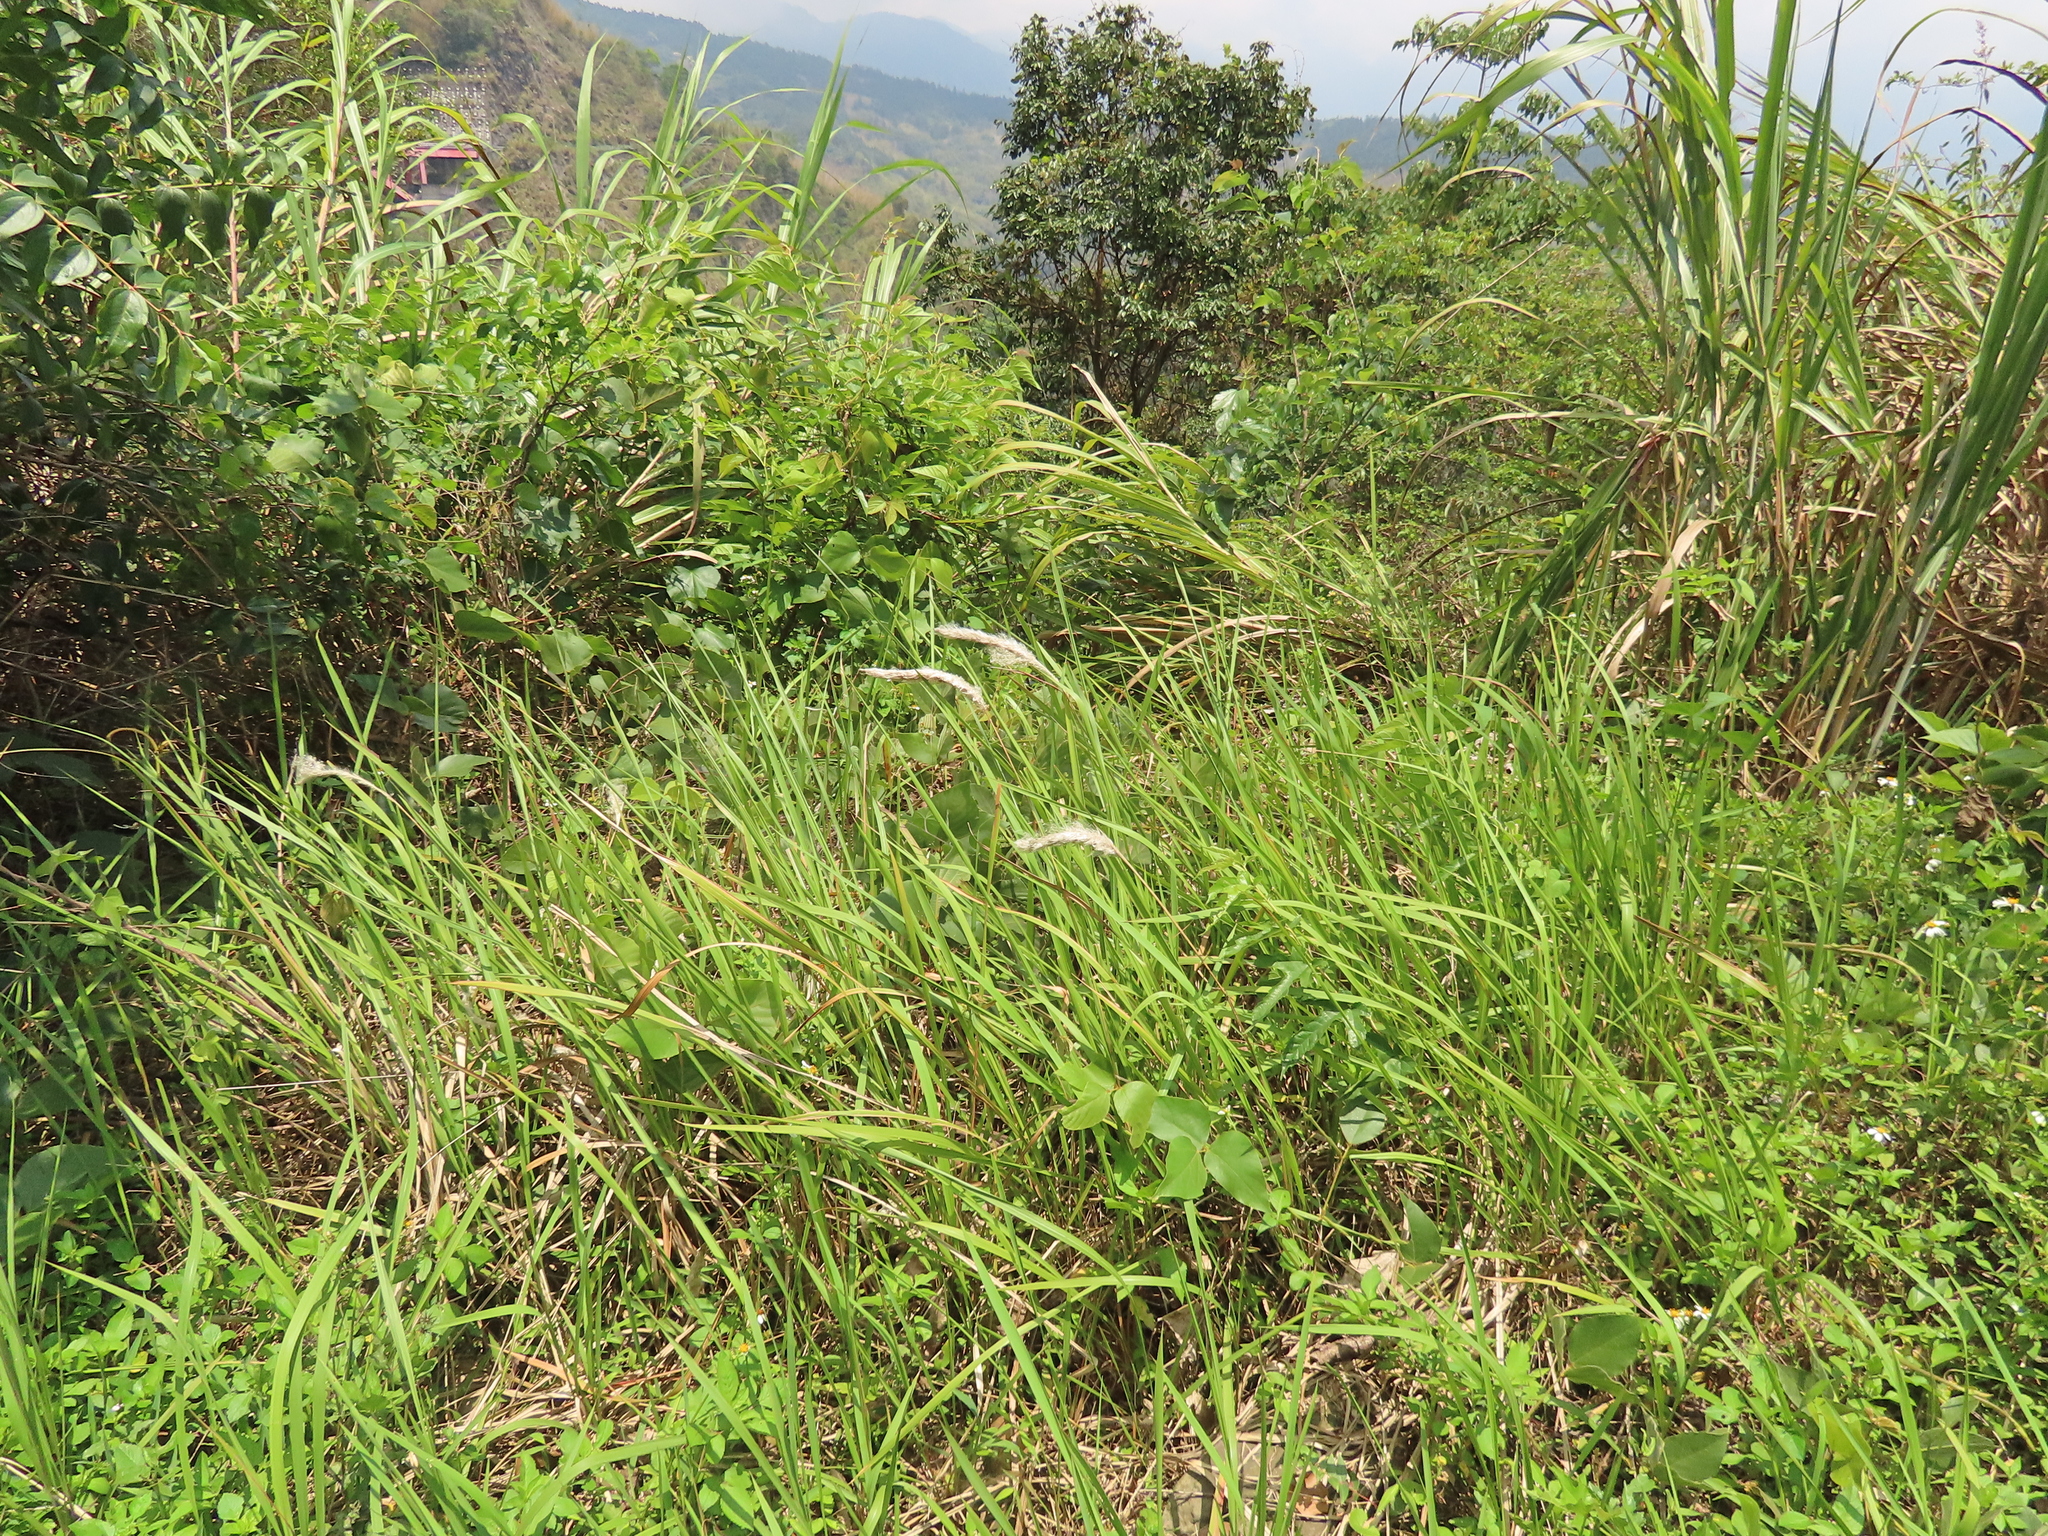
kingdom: Plantae
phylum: Tracheophyta
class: Liliopsida
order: Poales
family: Poaceae
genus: Imperata
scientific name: Imperata cylindrica
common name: Cogongrass
